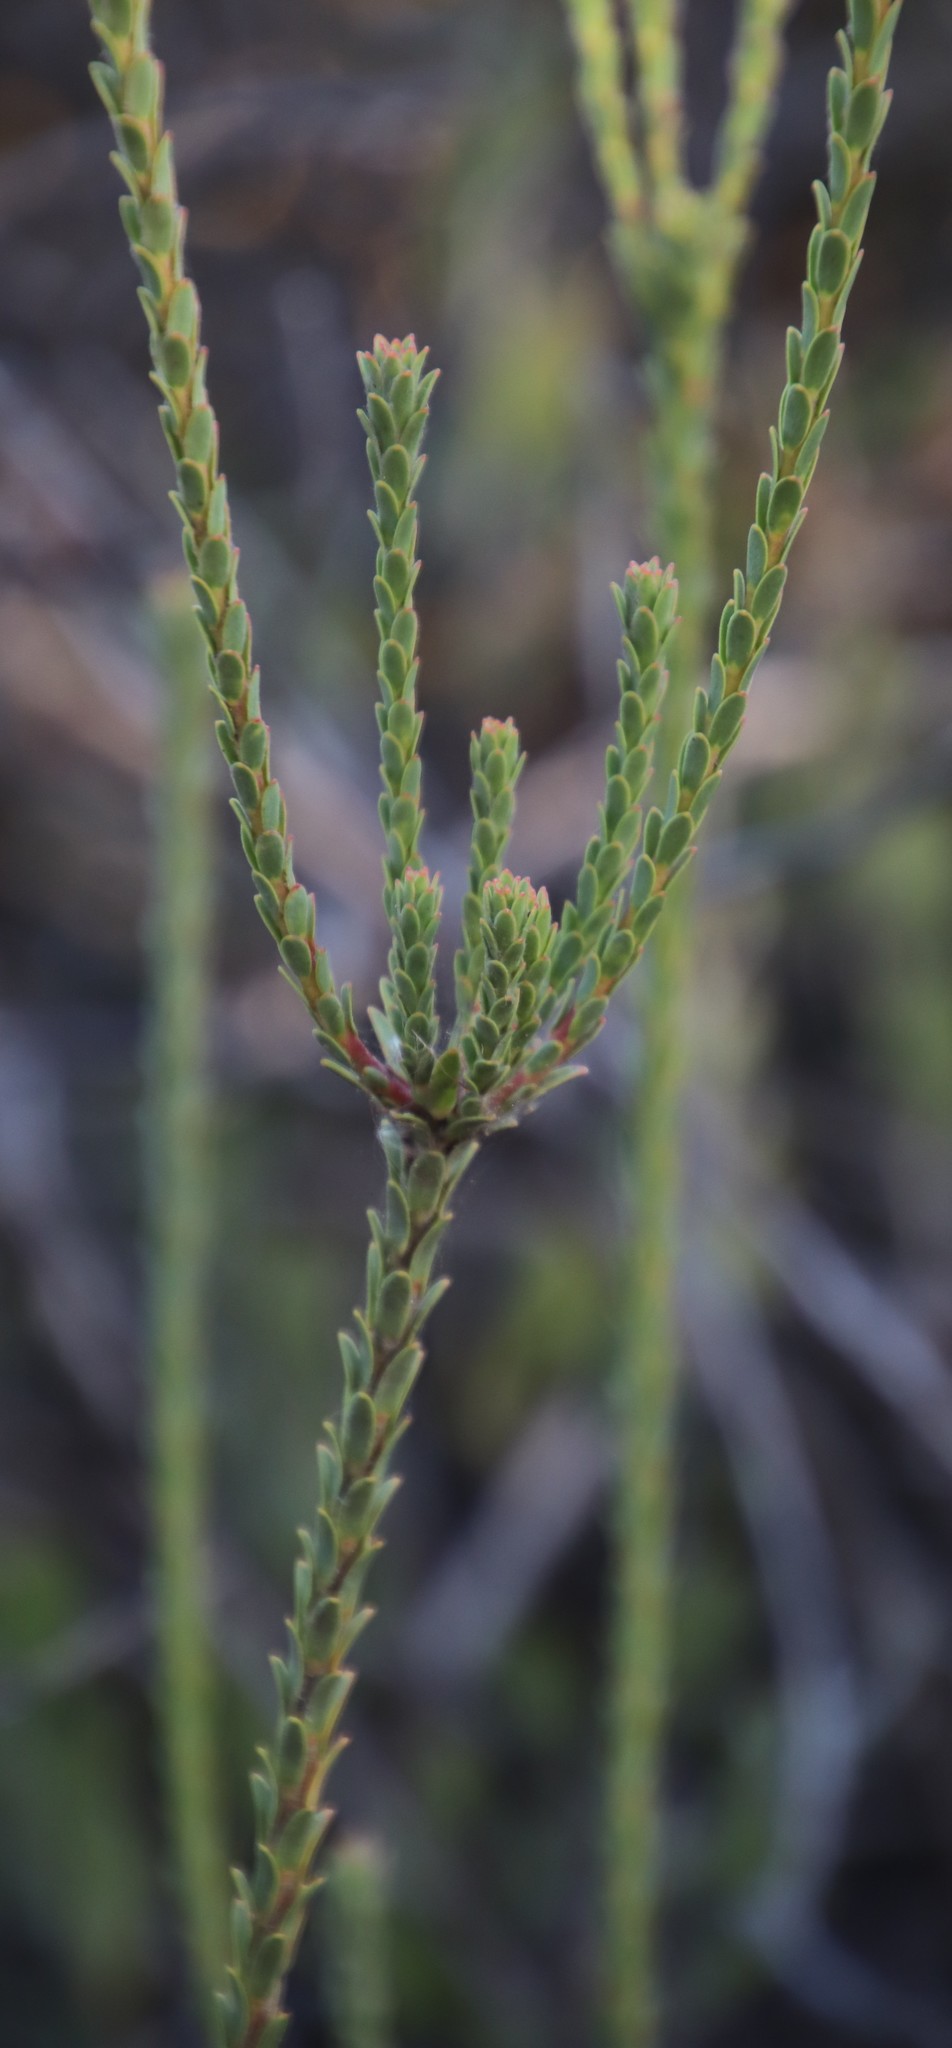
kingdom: Plantae
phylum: Tracheophyta
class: Magnoliopsida
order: Proteales
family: Proteaceae
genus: Leucadendron
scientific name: Leucadendron thymifolium
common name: Malmesbury conebush
